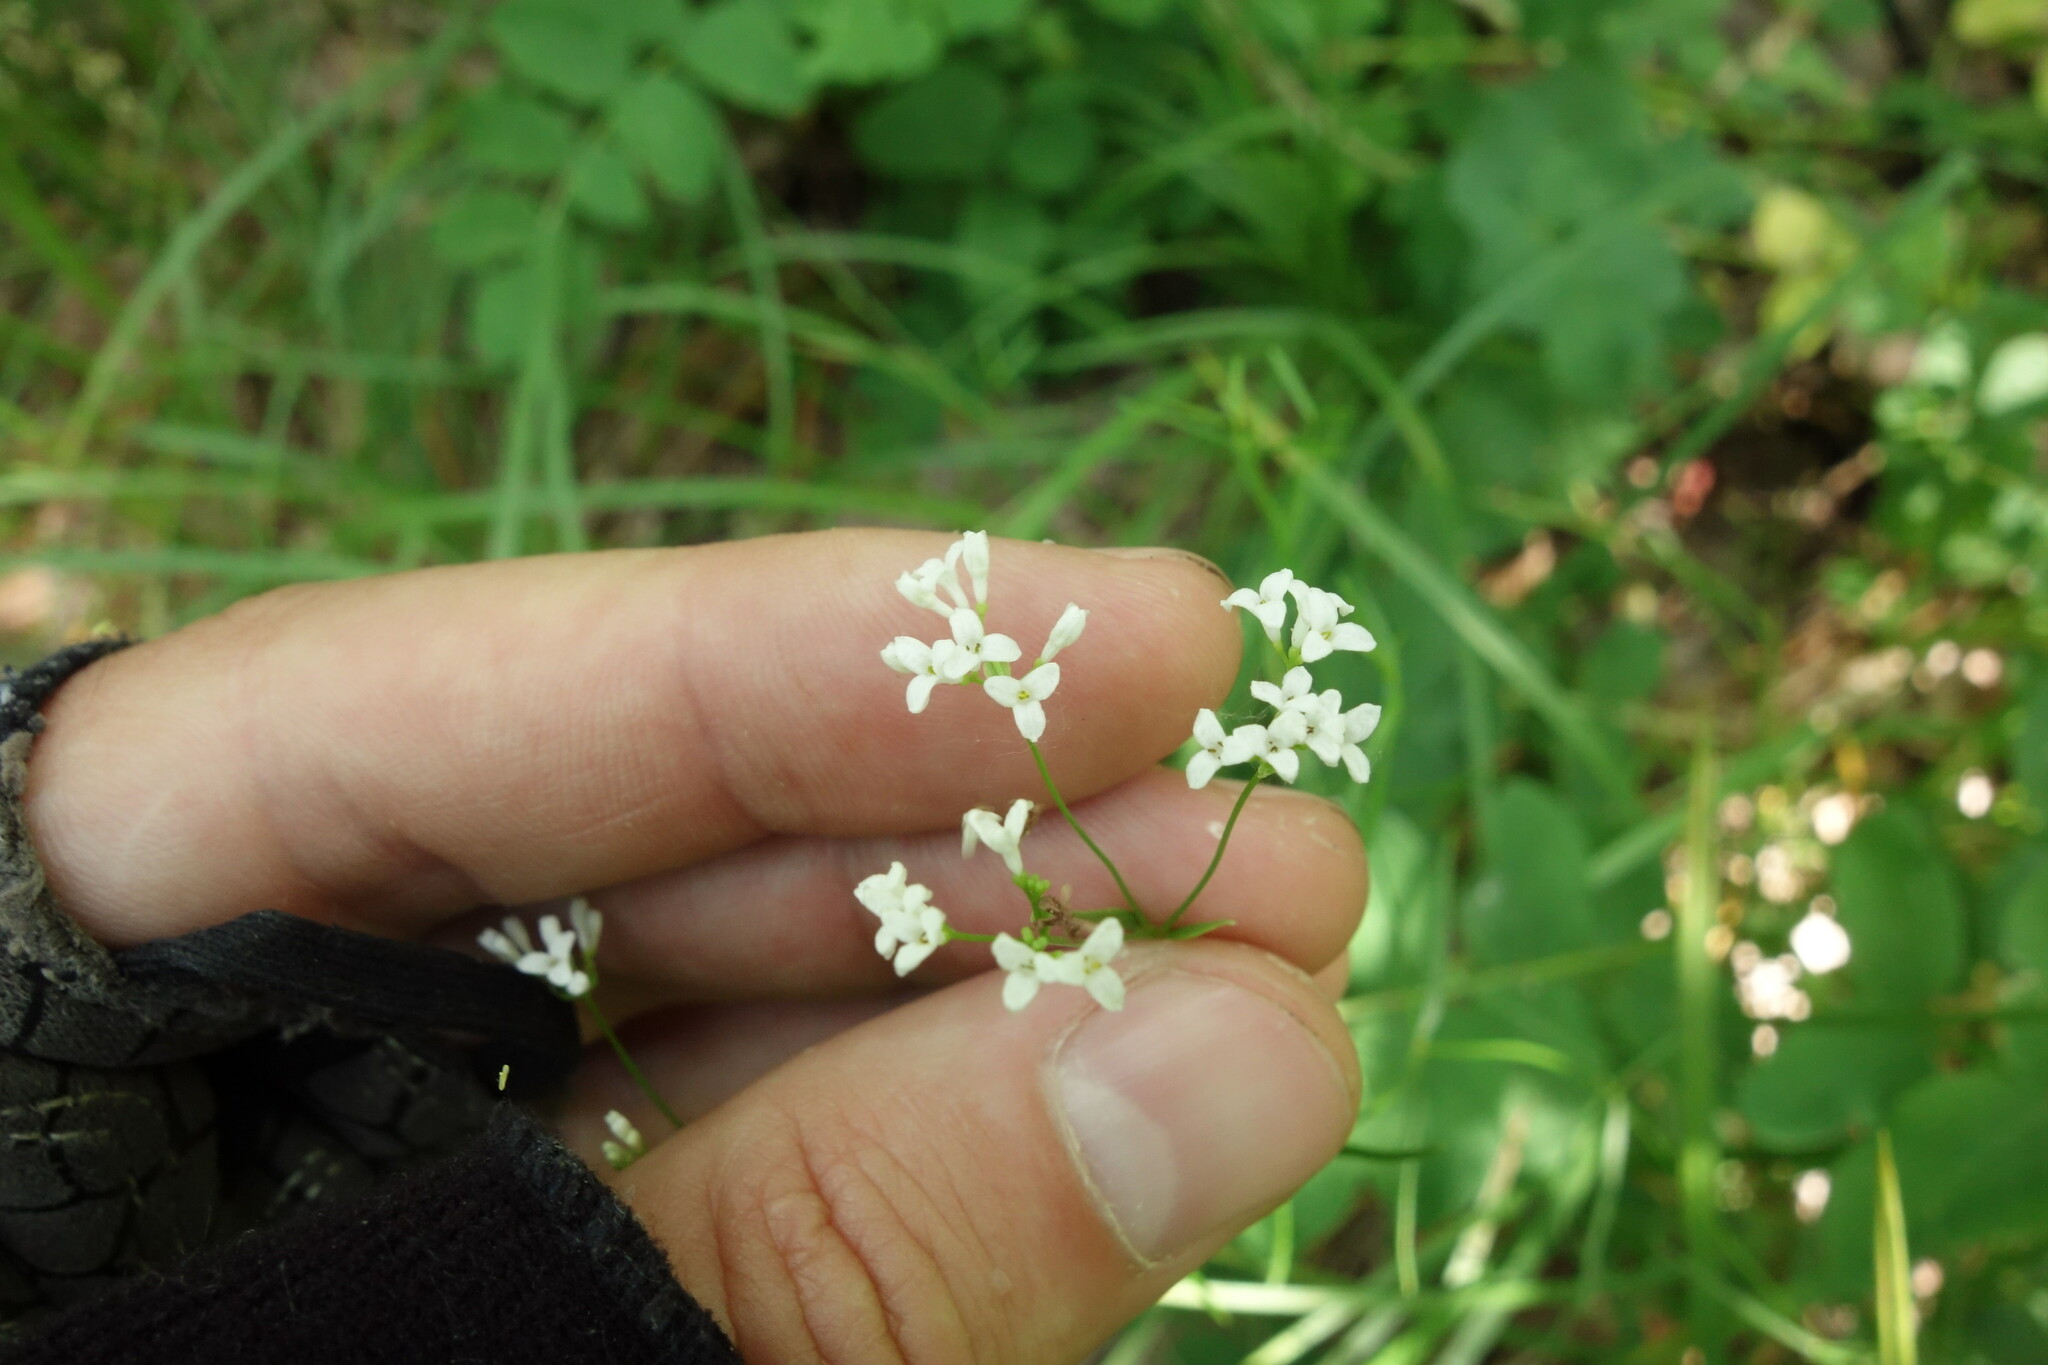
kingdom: Plantae
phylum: Tracheophyta
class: Magnoliopsida
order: Gentianales
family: Rubiaceae
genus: Asperula
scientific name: Asperula tinctoria
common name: Dyer's woodruff
